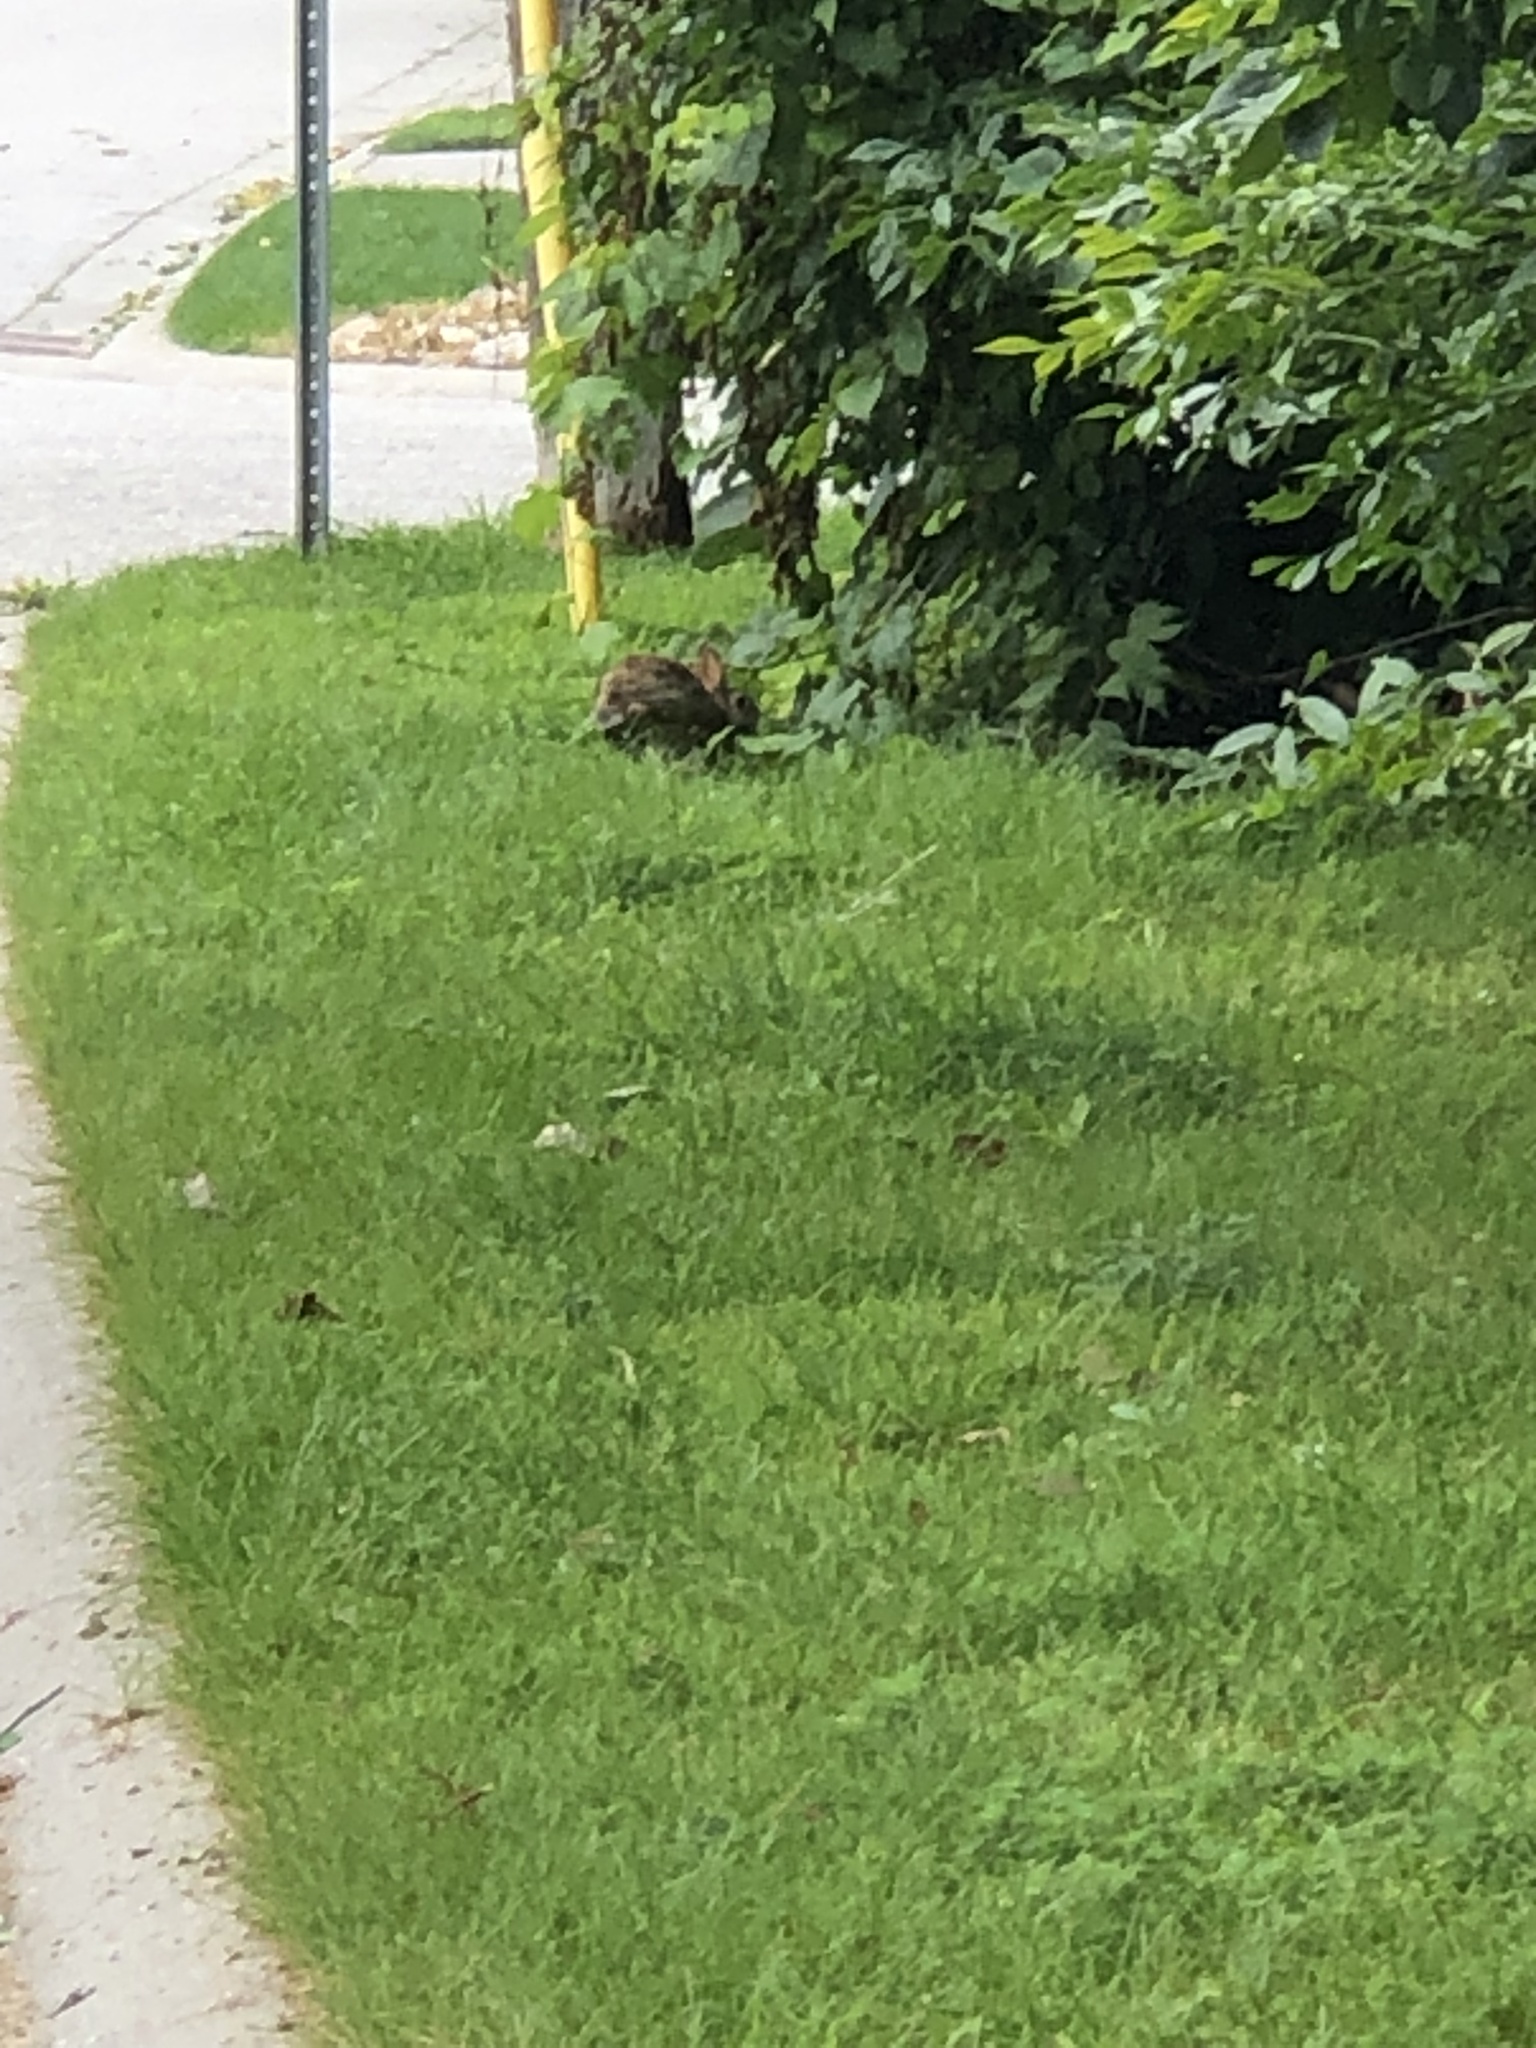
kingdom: Animalia
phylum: Chordata
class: Mammalia
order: Lagomorpha
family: Leporidae
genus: Sylvilagus
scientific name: Sylvilagus floridanus
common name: Eastern cottontail
